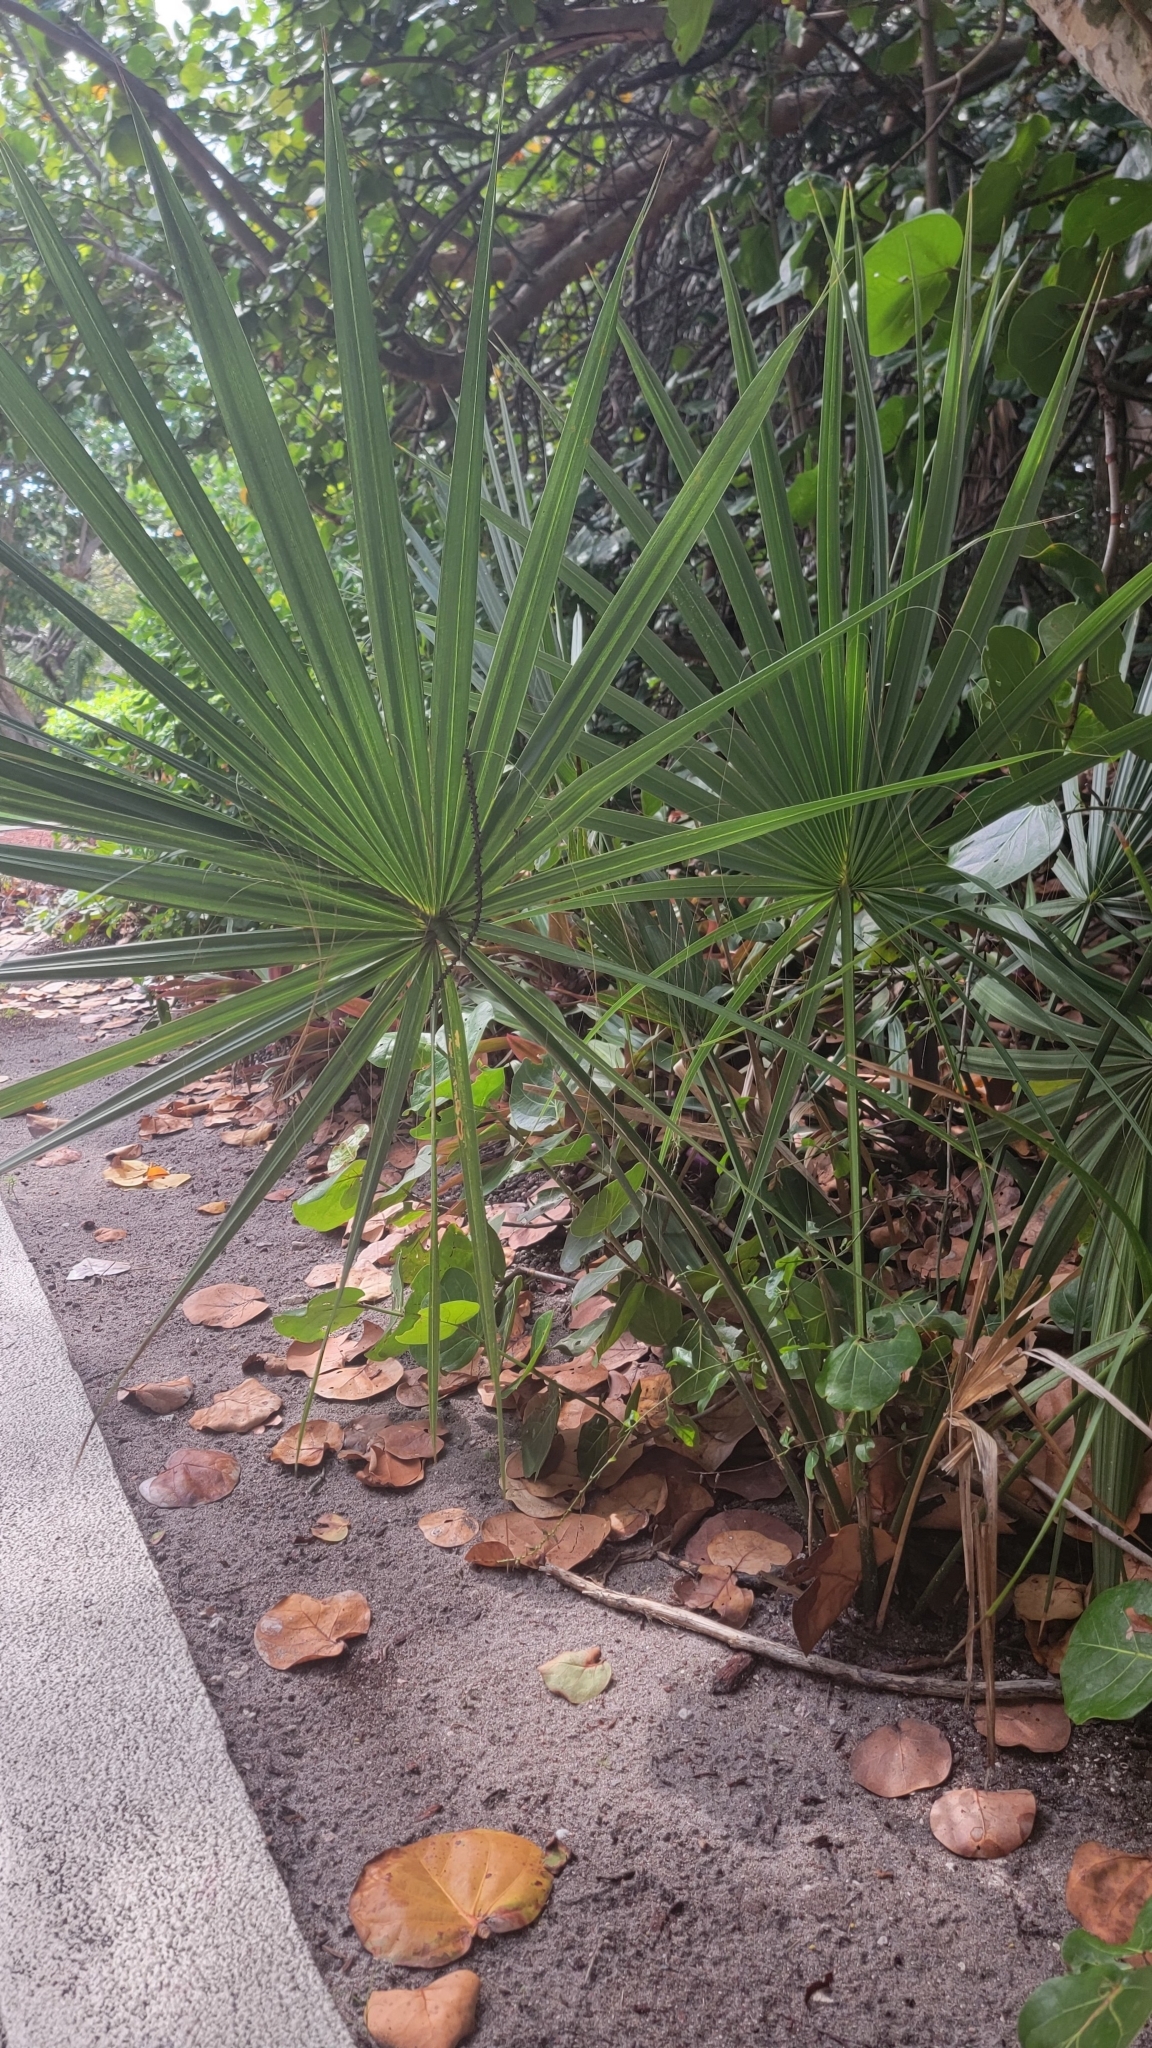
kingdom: Plantae
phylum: Tracheophyta
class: Liliopsida
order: Arecales
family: Arecaceae
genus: Sabal
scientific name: Sabal palmetto
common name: Blue palmetto
